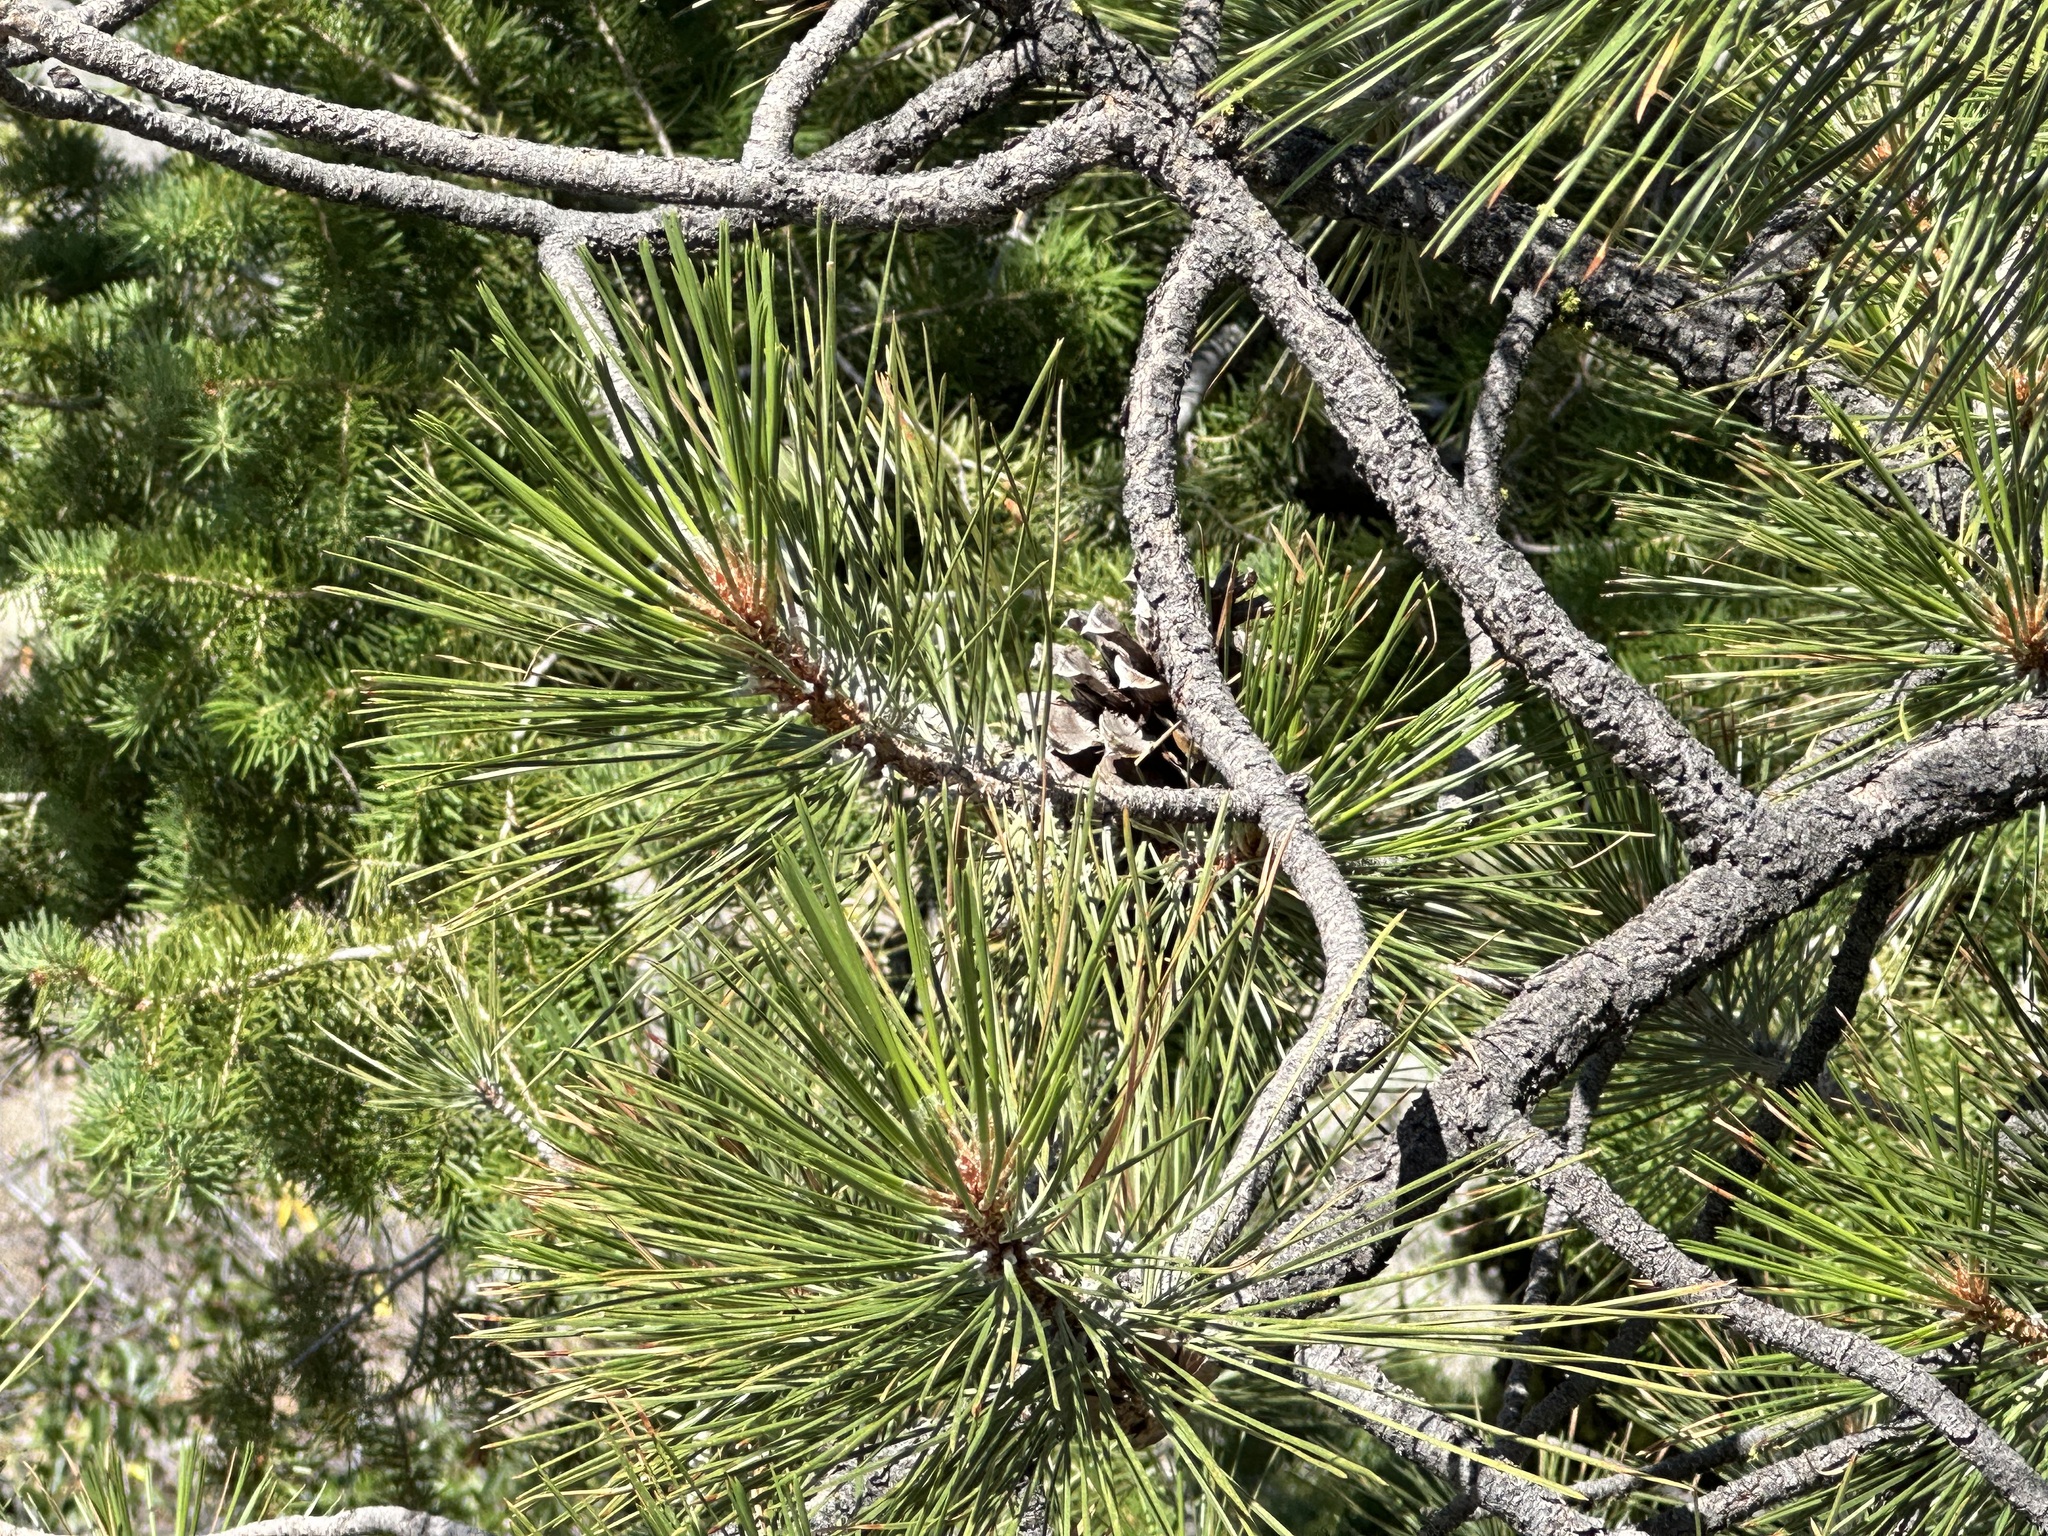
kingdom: Plantae
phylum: Tracheophyta
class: Pinopsida
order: Pinales
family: Pinaceae
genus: Pinus
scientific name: Pinus ponderosa
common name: Western yellow-pine
